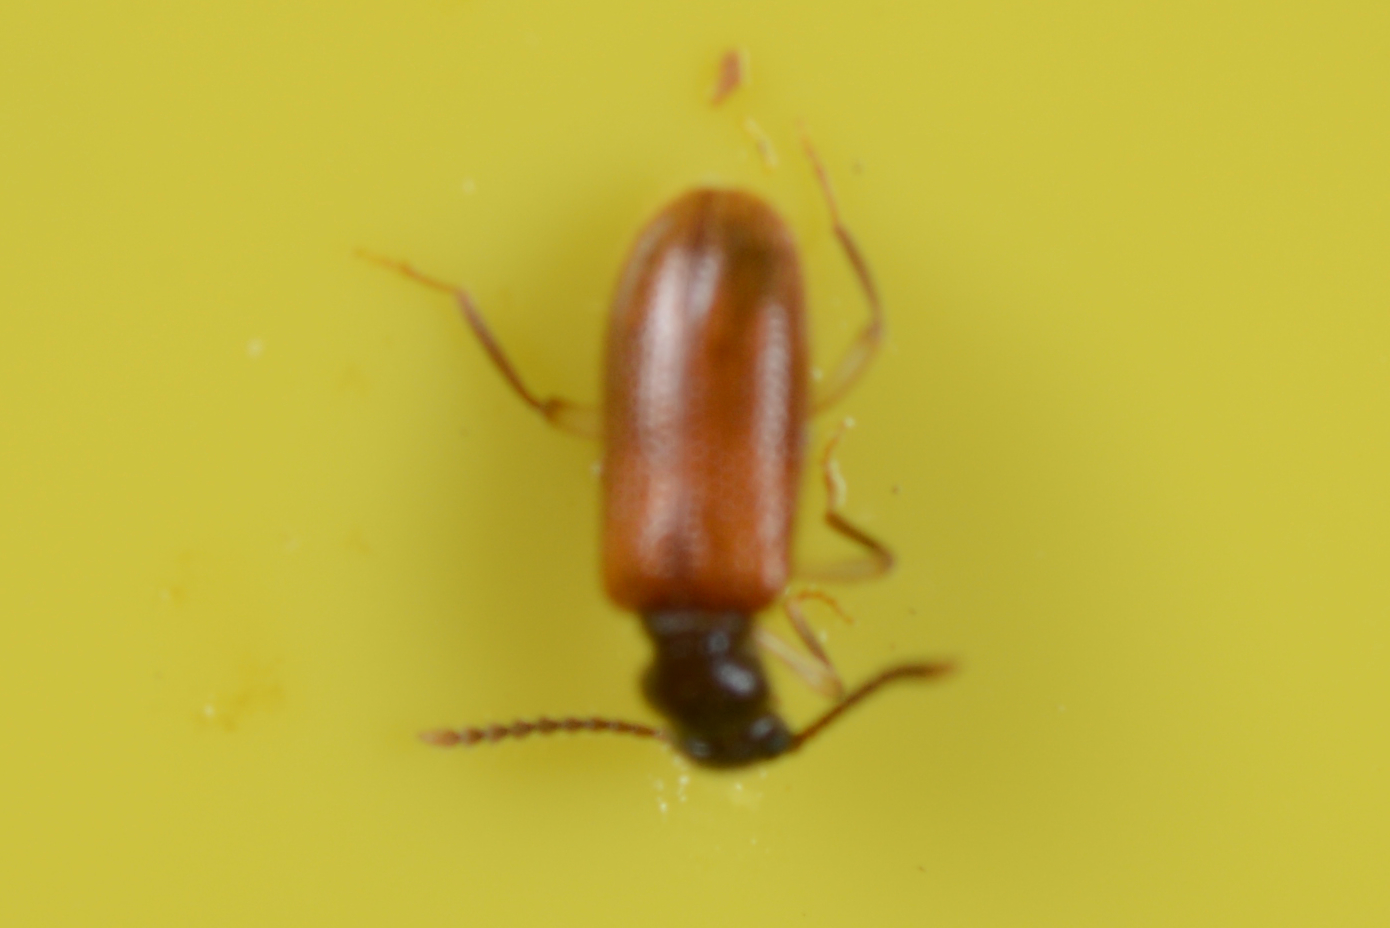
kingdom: Animalia
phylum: Arthropoda
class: Insecta
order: Coleoptera
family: Anthicidae
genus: Trichananca
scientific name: Trichananca fulgida
